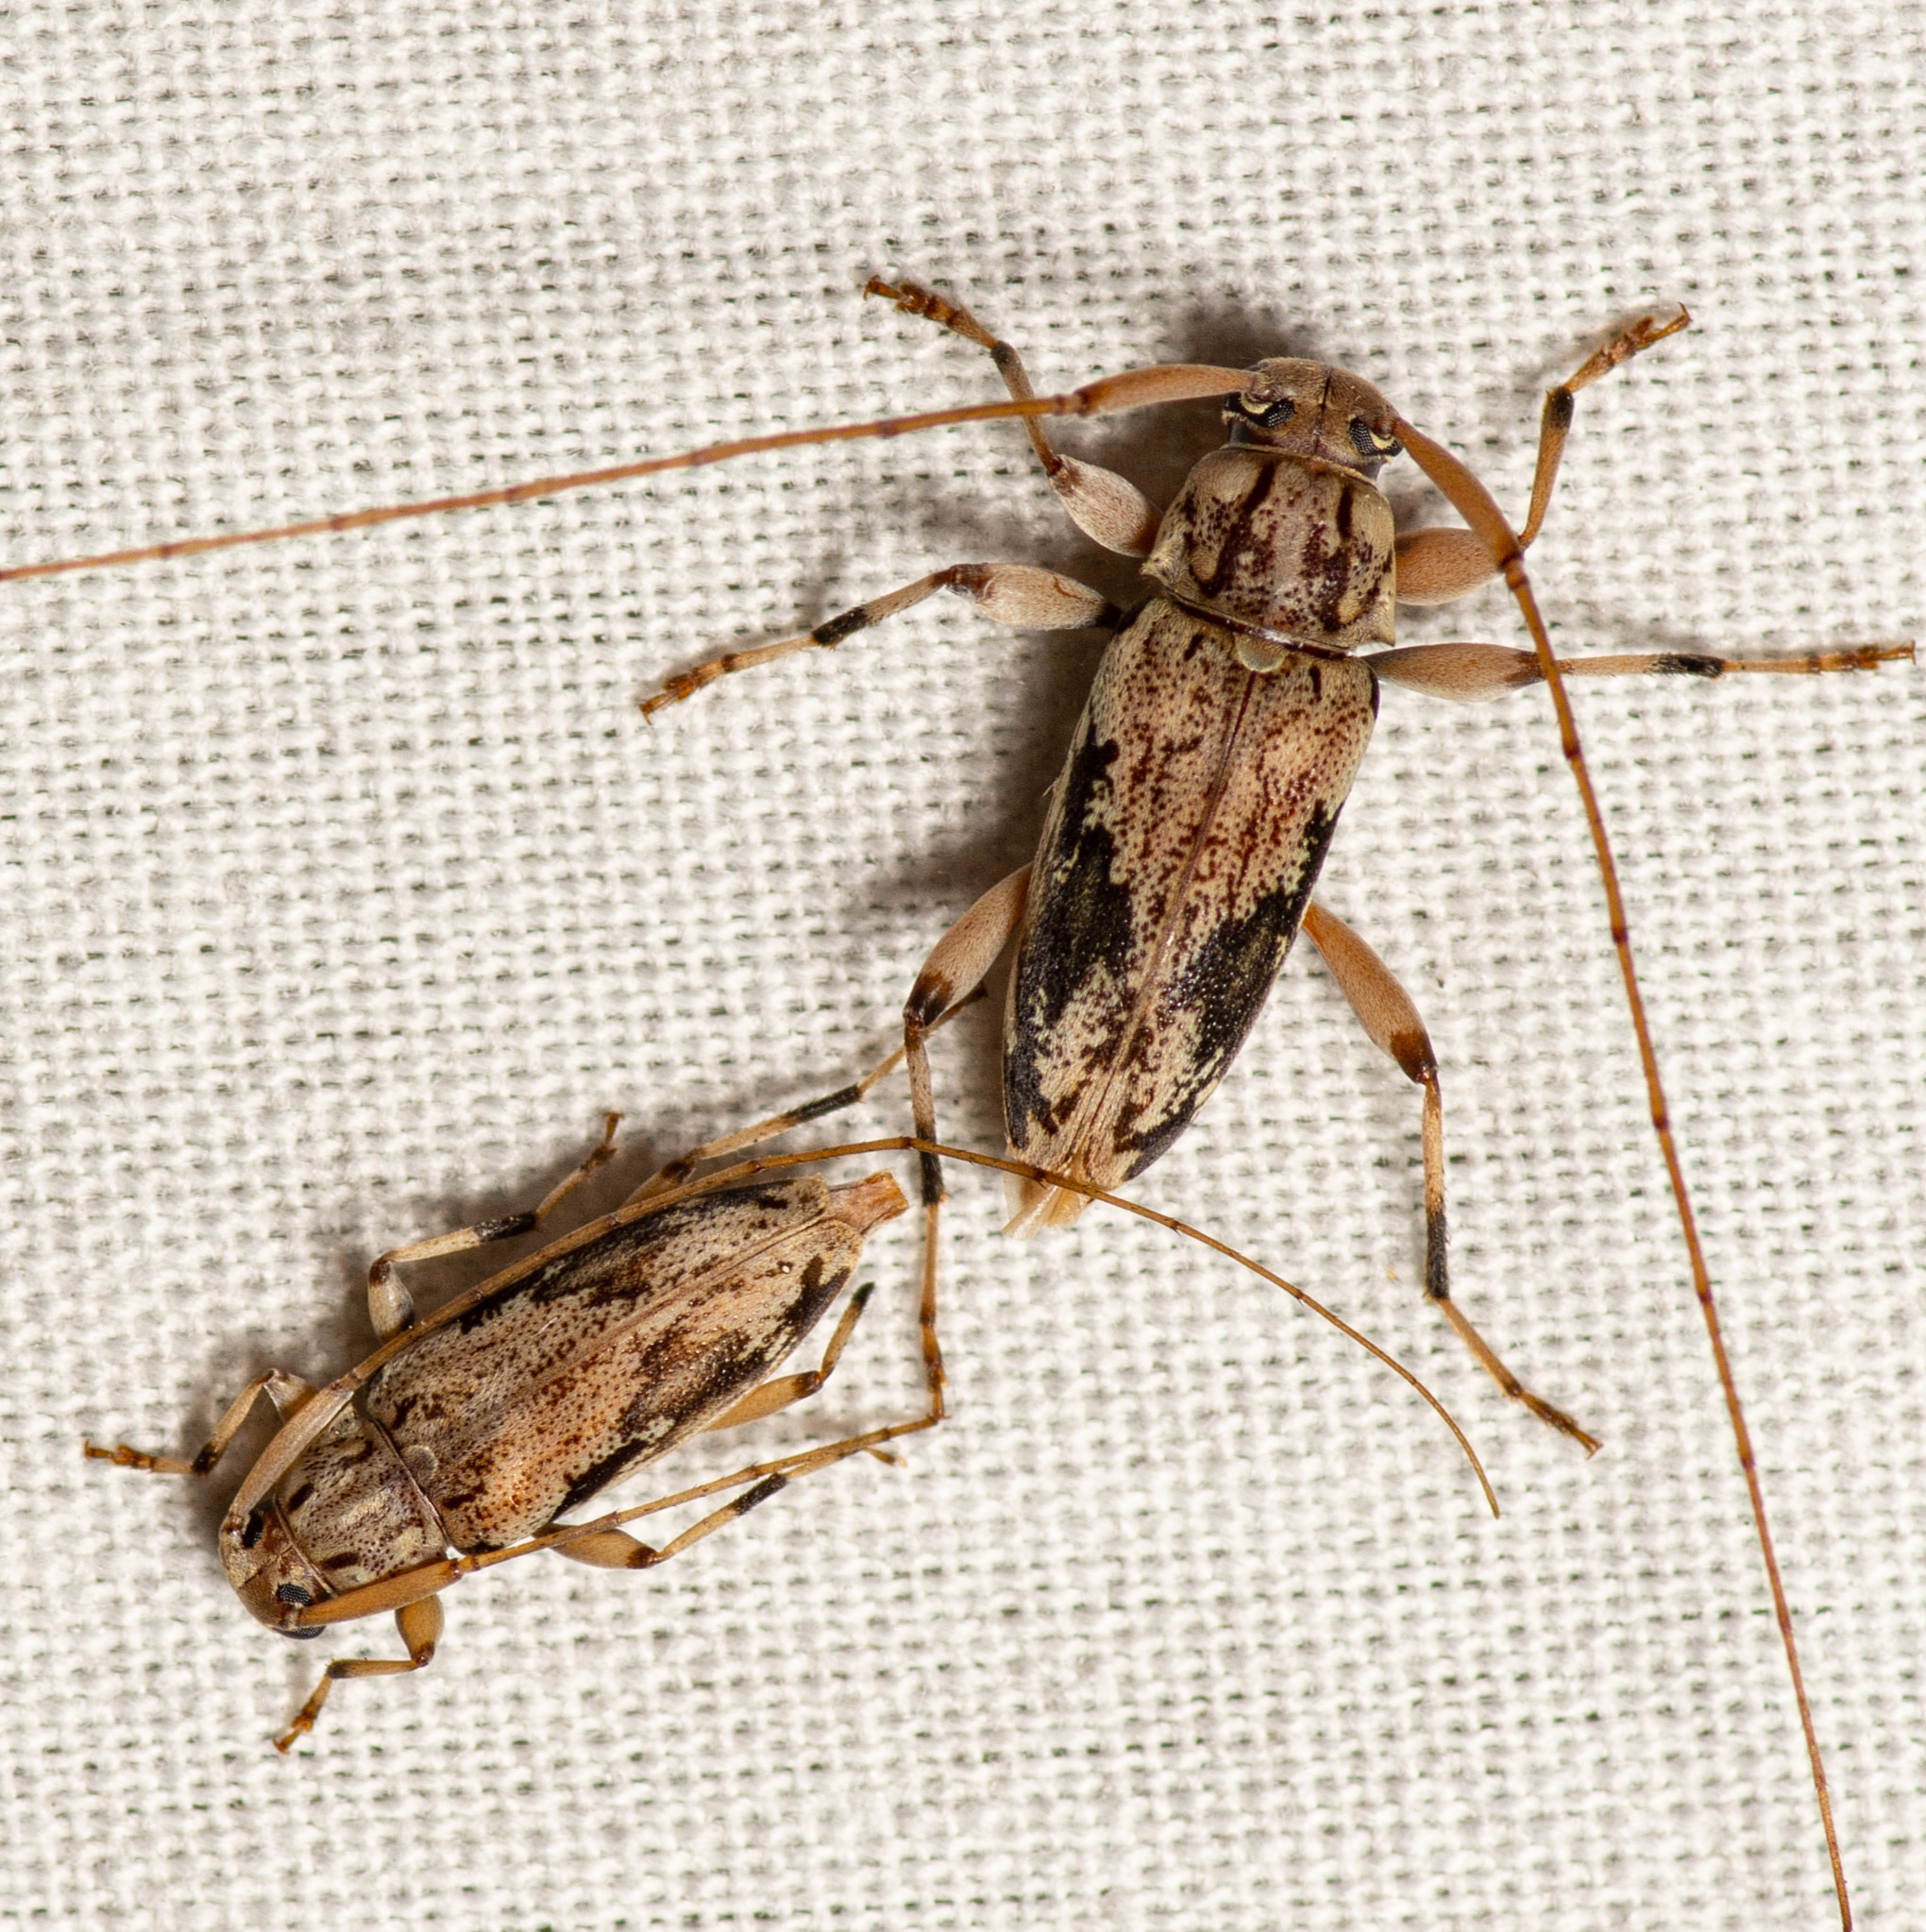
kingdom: Animalia
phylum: Arthropoda
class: Insecta
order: Coleoptera
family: Cerambycidae
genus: Lepturges
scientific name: Lepturges angulatus
